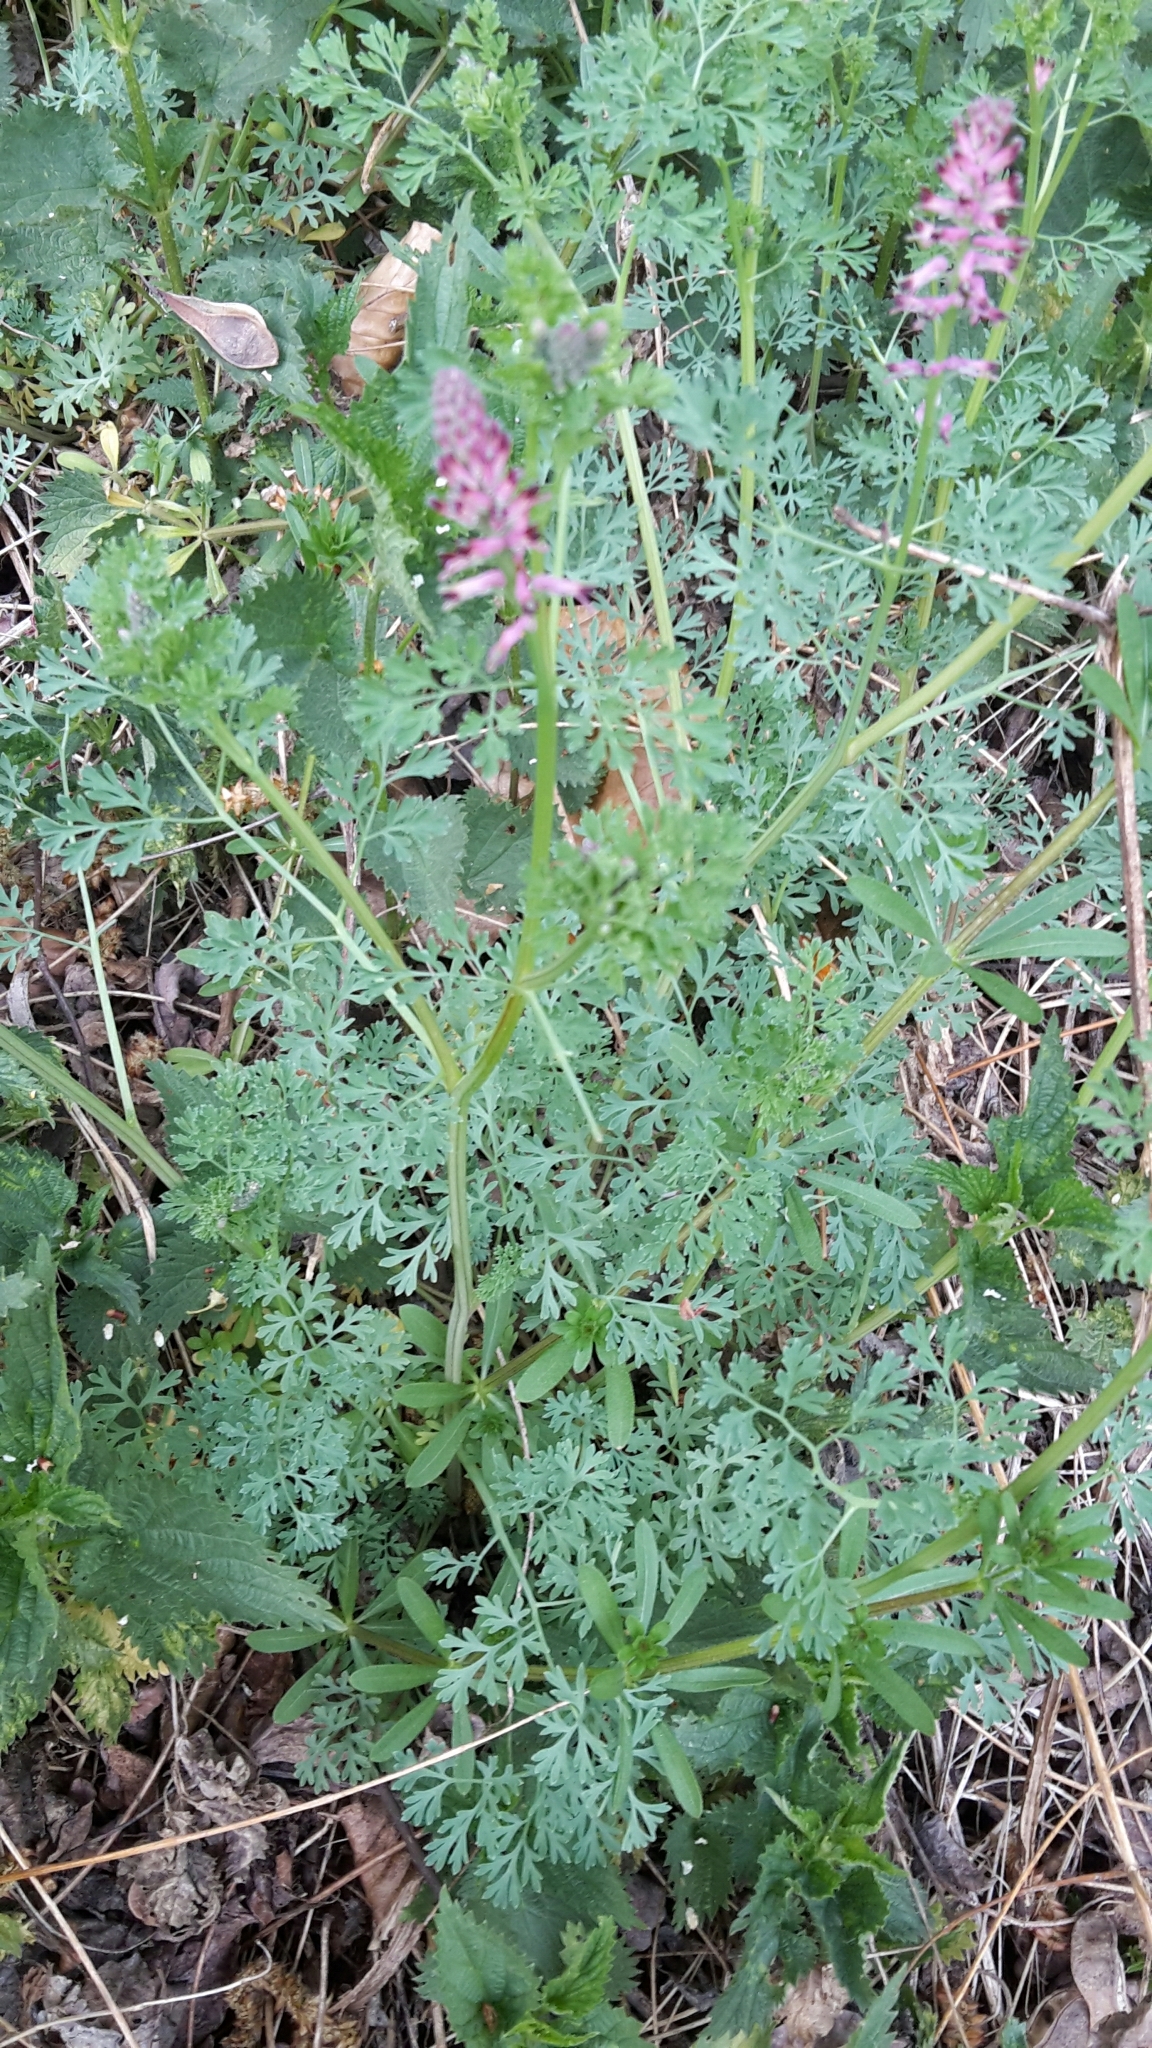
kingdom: Plantae
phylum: Tracheophyta
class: Magnoliopsida
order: Ranunculales
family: Papaveraceae
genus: Fumaria
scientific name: Fumaria officinalis
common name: Common fumitory
